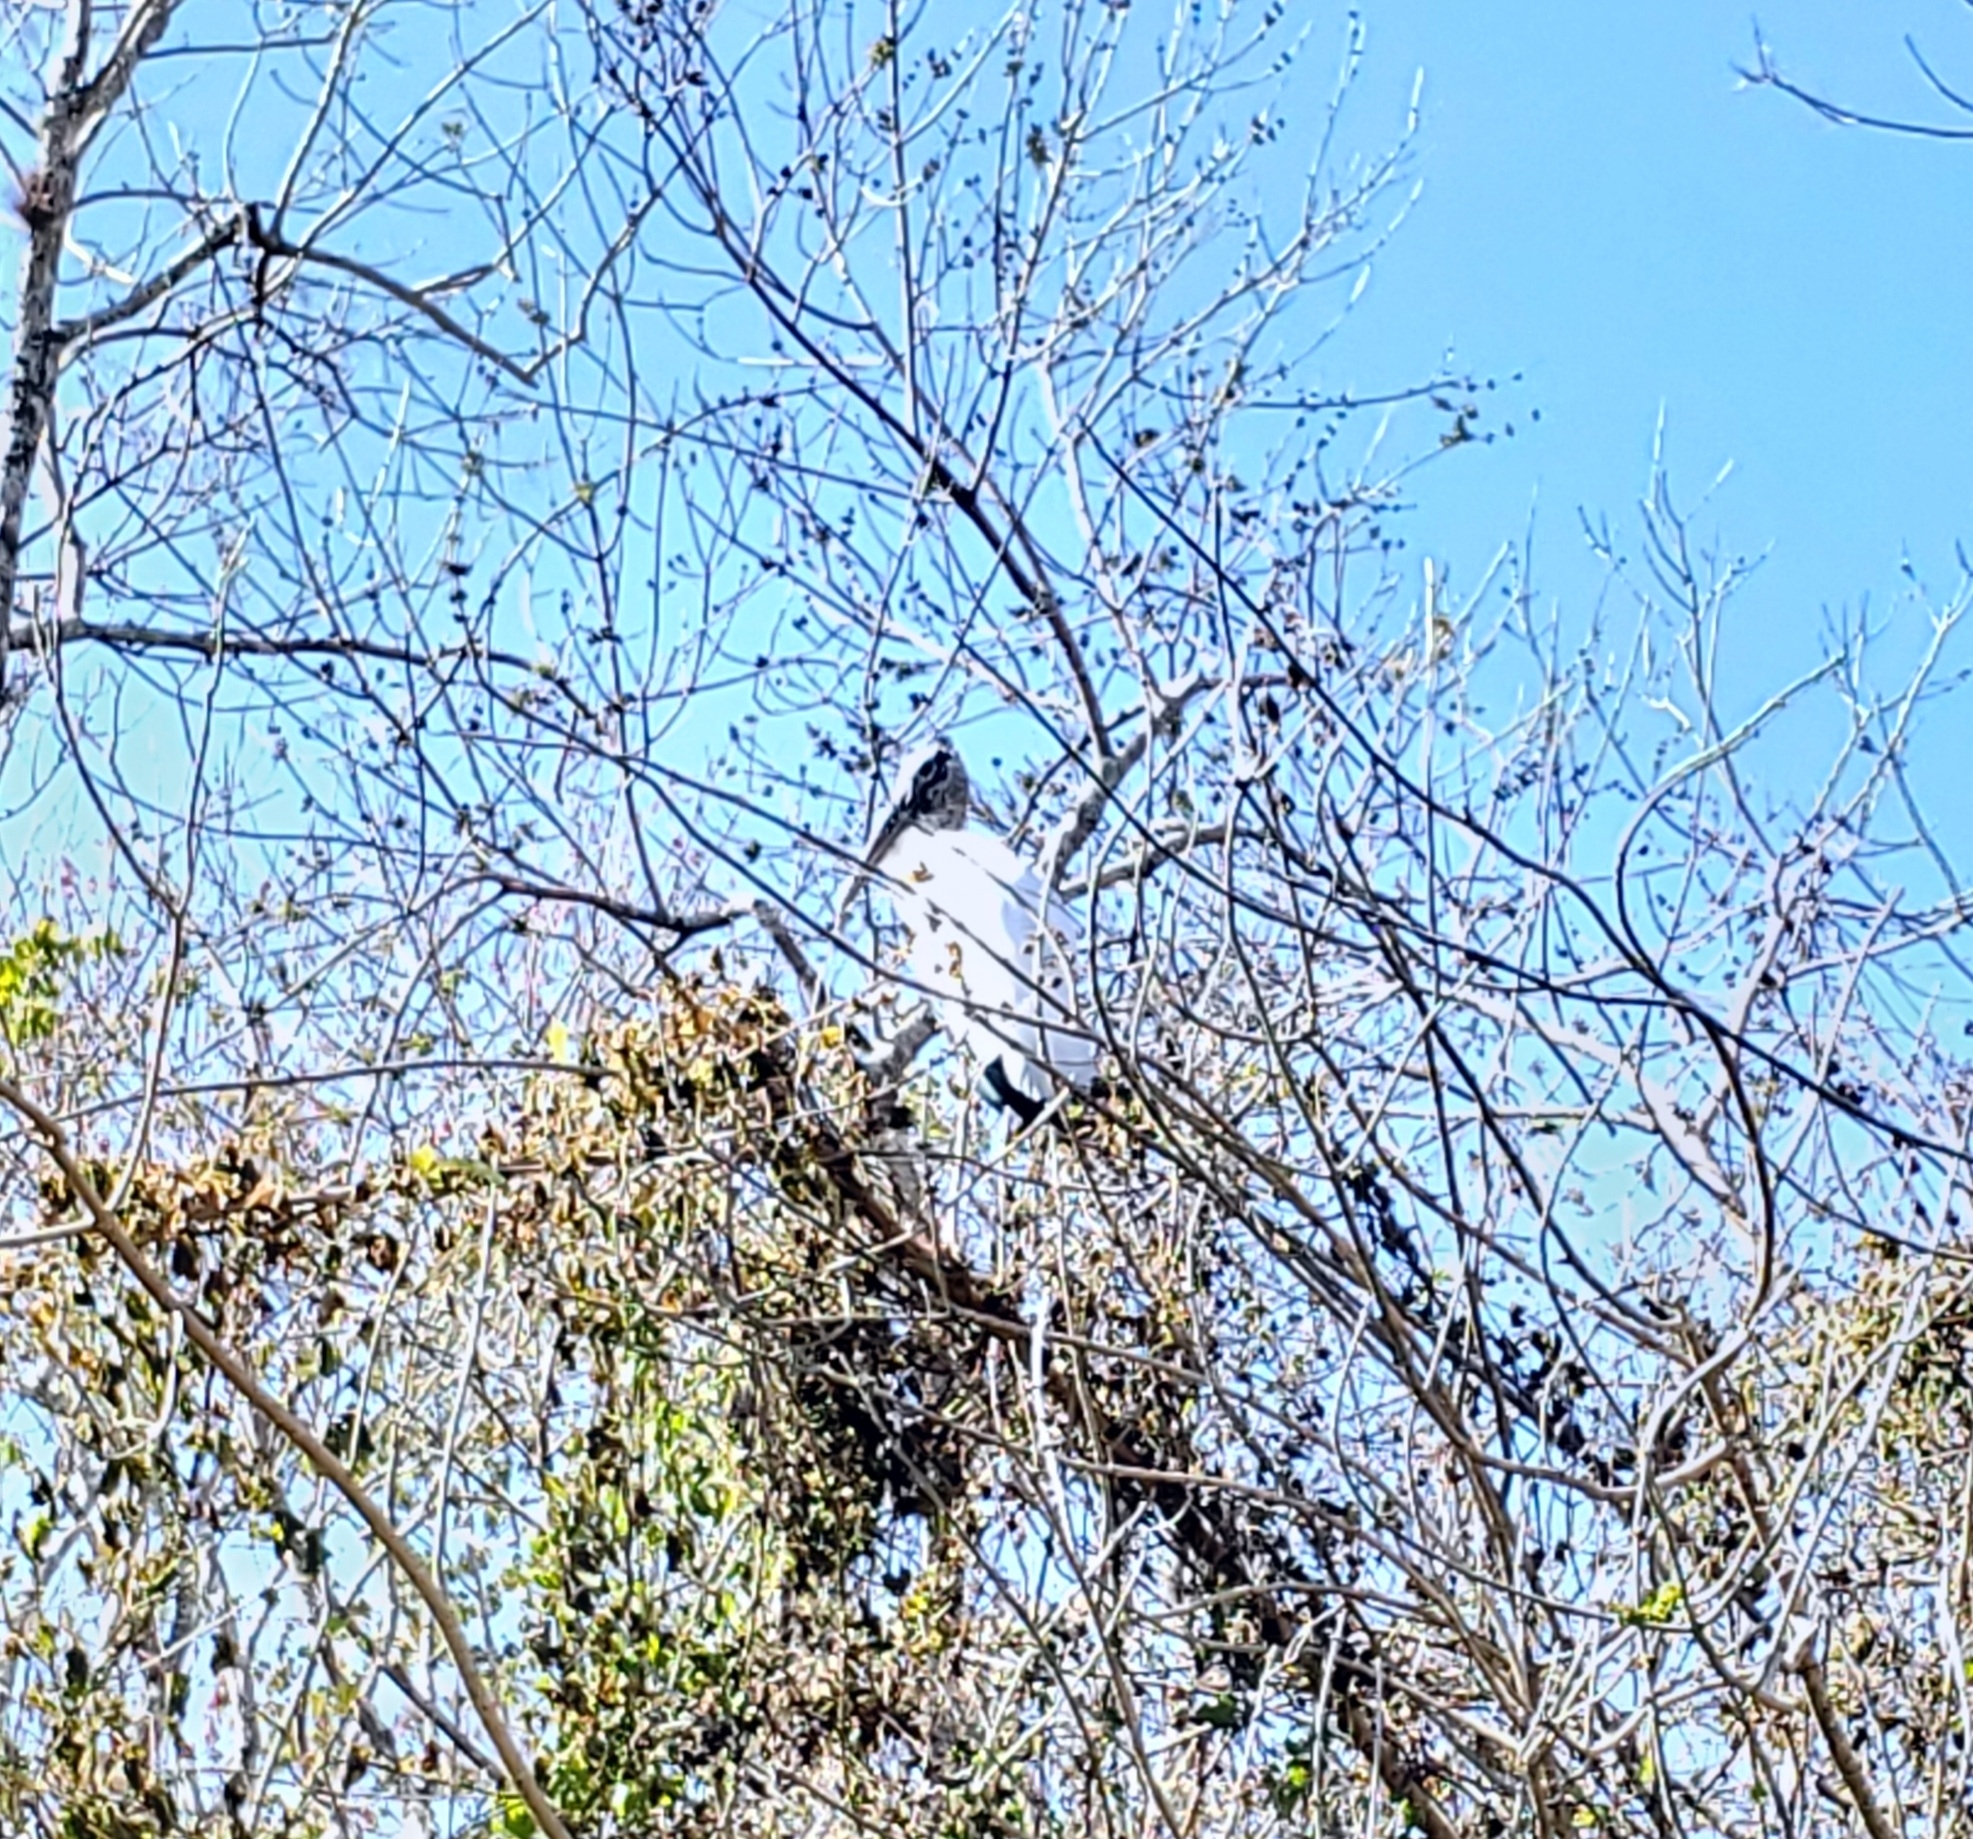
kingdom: Animalia
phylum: Chordata
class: Aves
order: Ciconiiformes
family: Ciconiidae
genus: Mycteria
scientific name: Mycteria americana
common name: Wood stork
